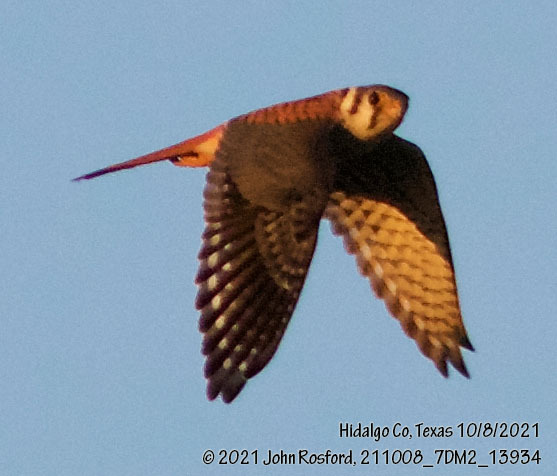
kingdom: Animalia
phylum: Chordata
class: Aves
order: Falconiformes
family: Falconidae
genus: Falco
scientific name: Falco sparverius
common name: American kestrel
